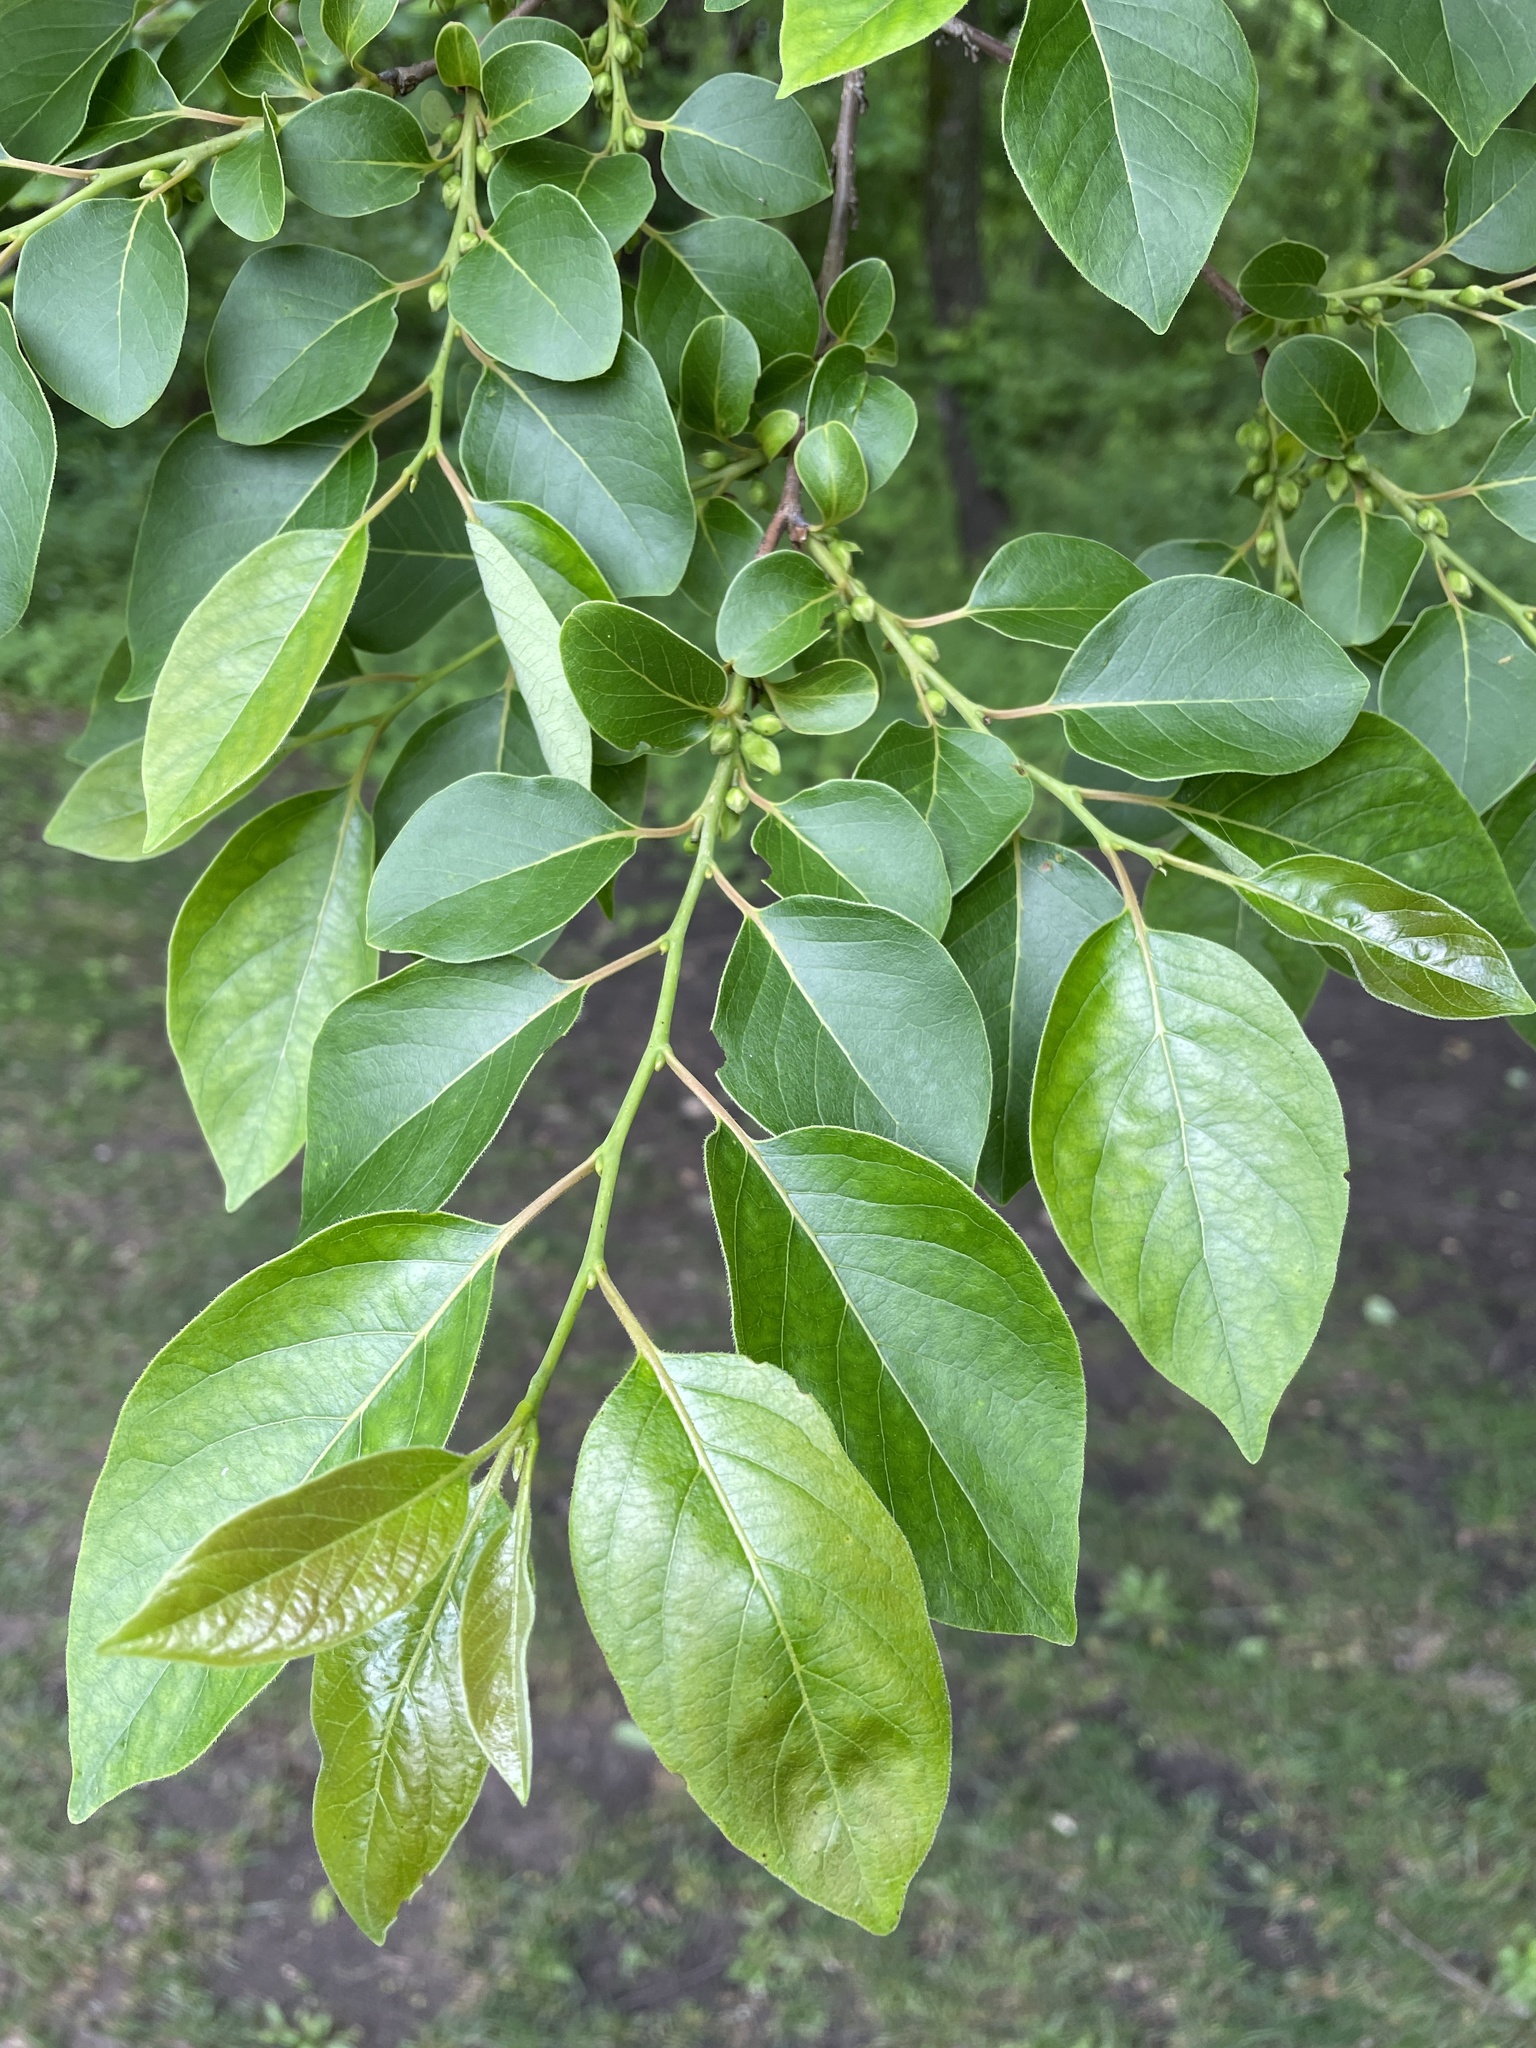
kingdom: Plantae
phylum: Tracheophyta
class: Magnoliopsida
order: Ericales
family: Ebenaceae
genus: Diospyros
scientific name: Diospyros virginiana
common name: Persimmon
